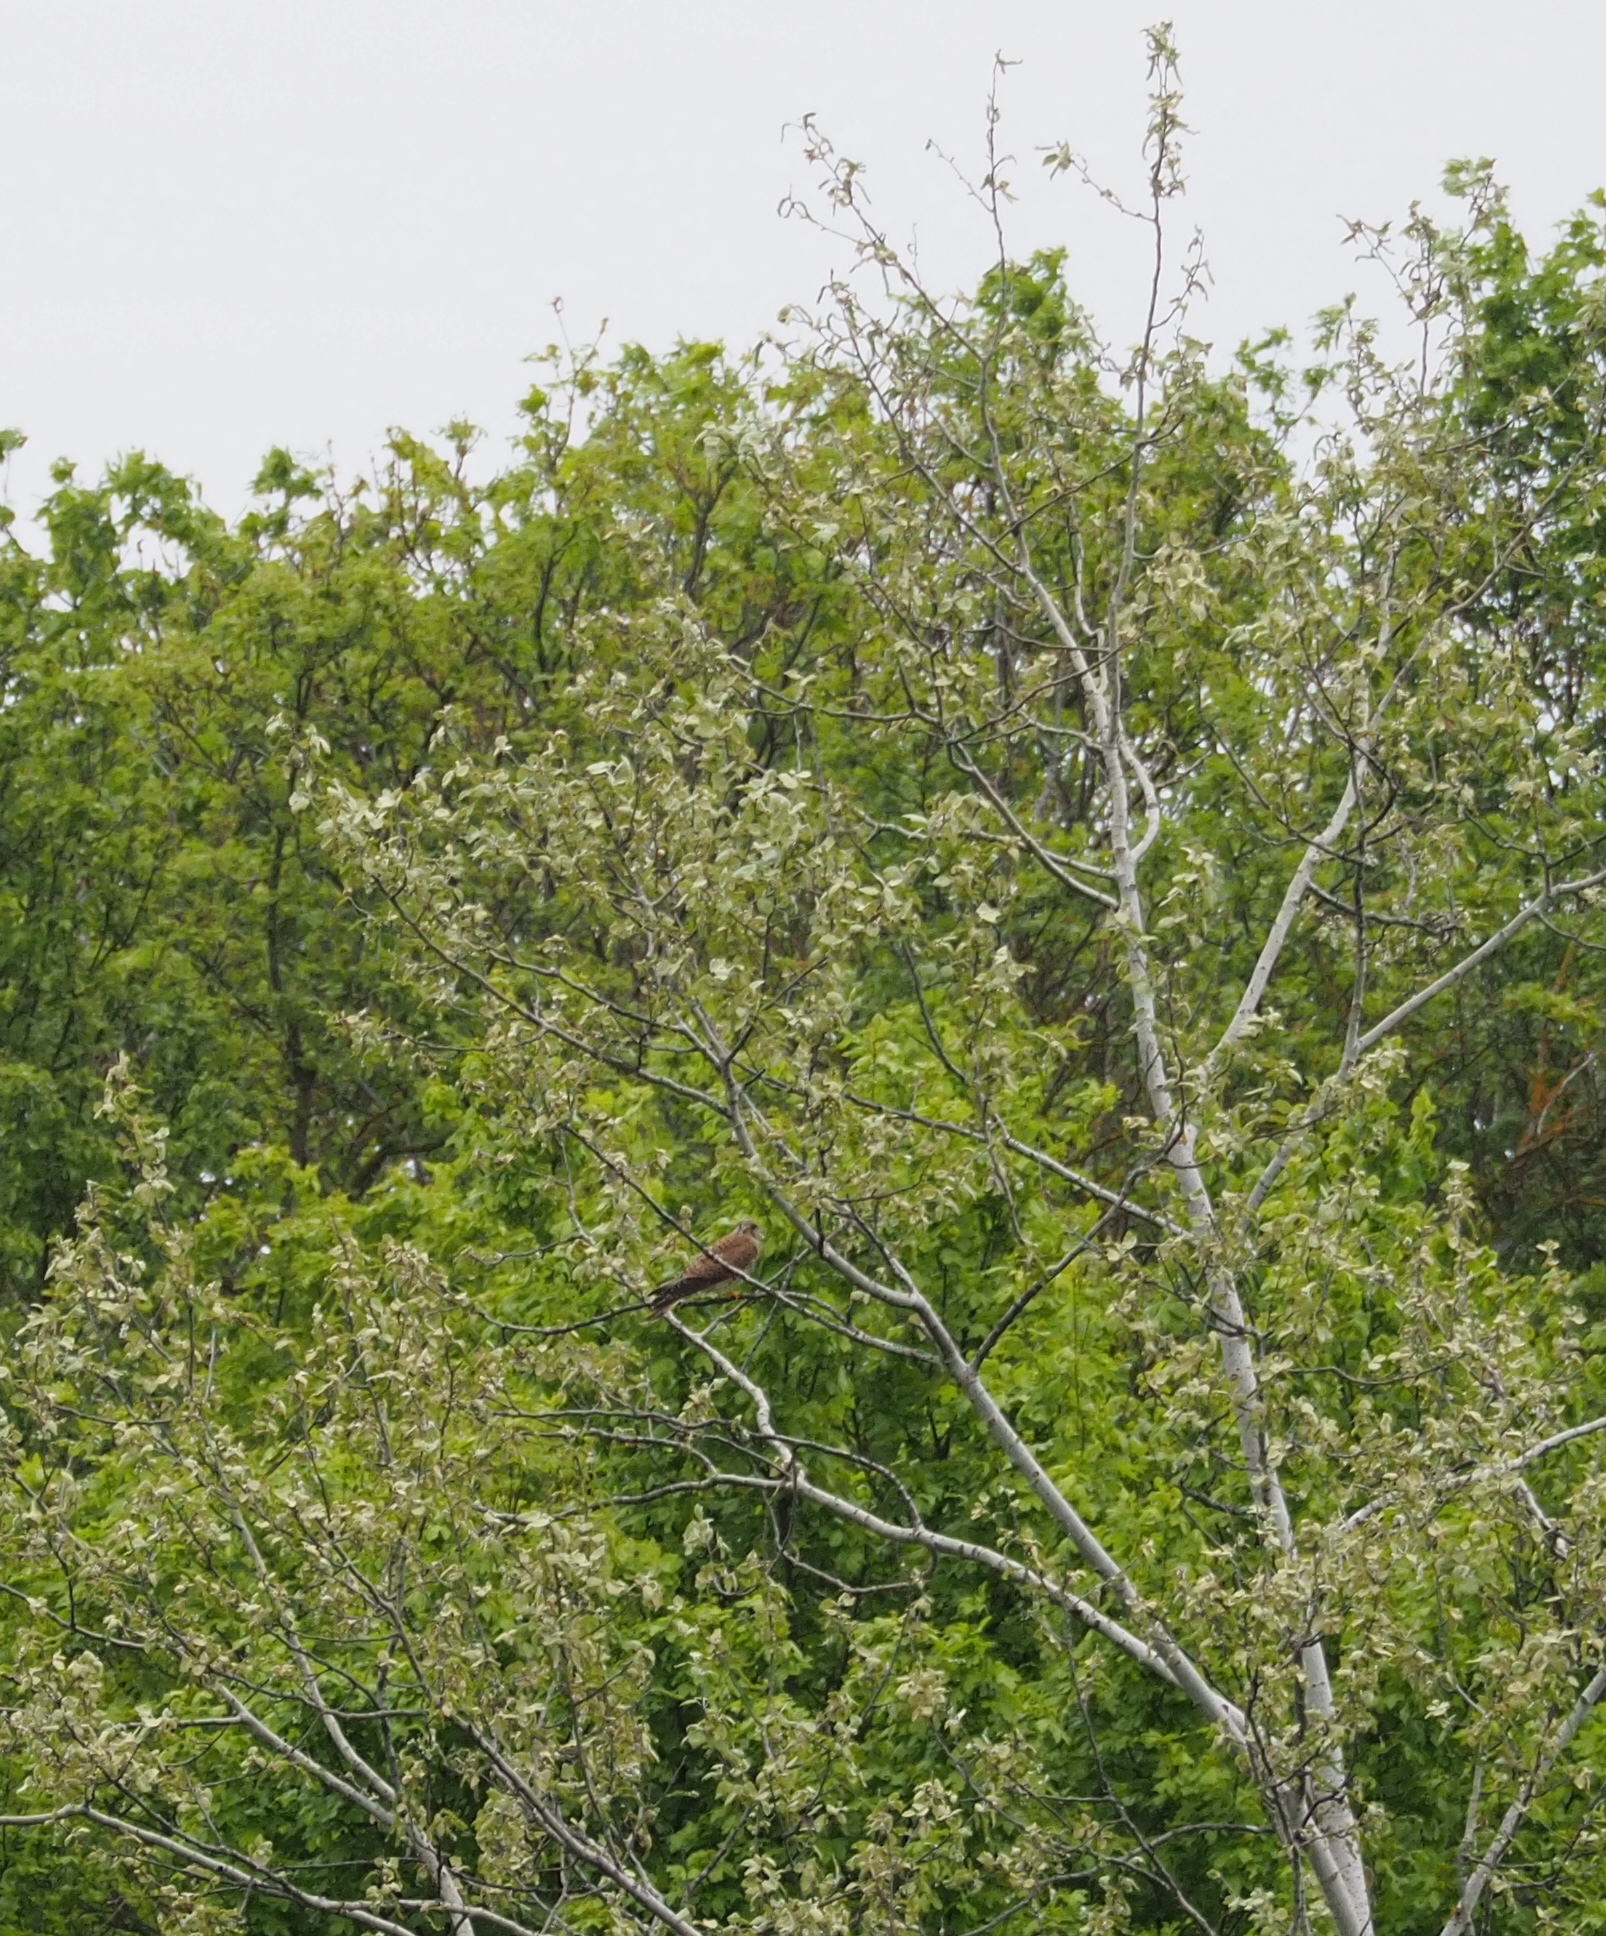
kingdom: Animalia
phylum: Chordata
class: Aves
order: Falconiformes
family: Falconidae
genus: Falco
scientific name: Falco tinnunculus
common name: Common kestrel
